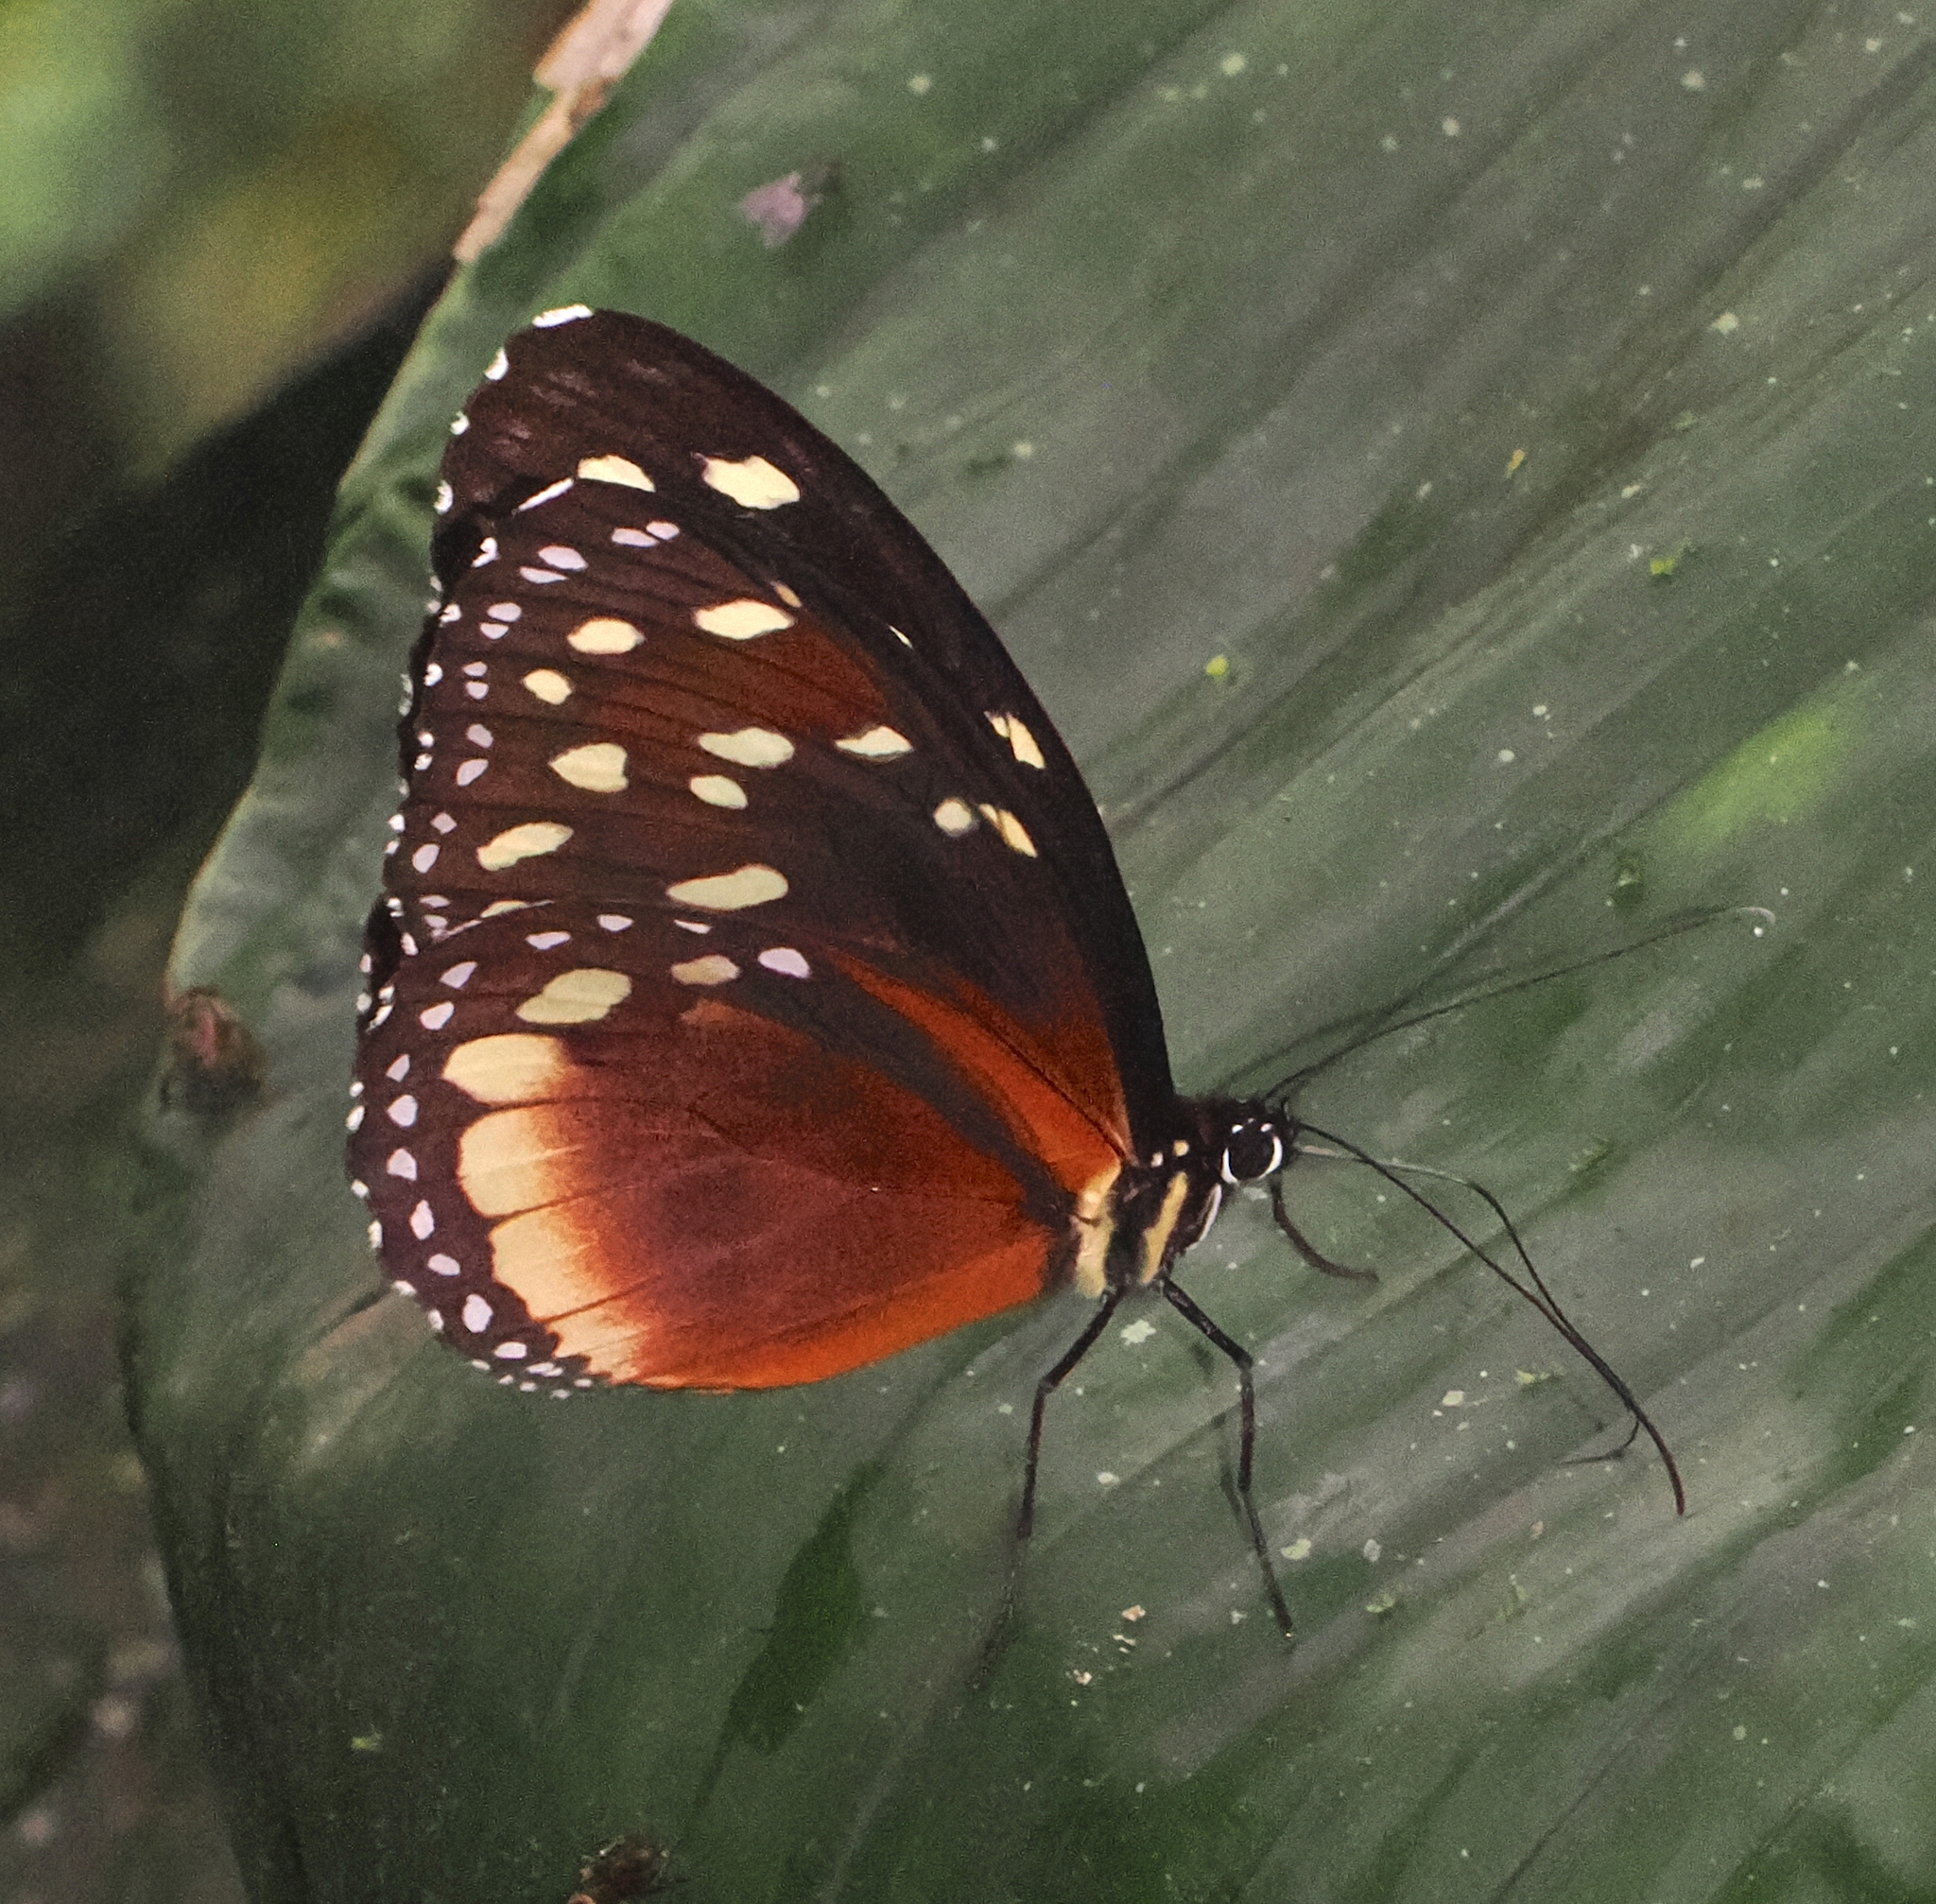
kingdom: Animalia
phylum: Arthropoda
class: Insecta
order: Lepidoptera
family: Nymphalidae
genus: Tithorea
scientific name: Tithorea tarricina
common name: Cream-spotted tigerwing
